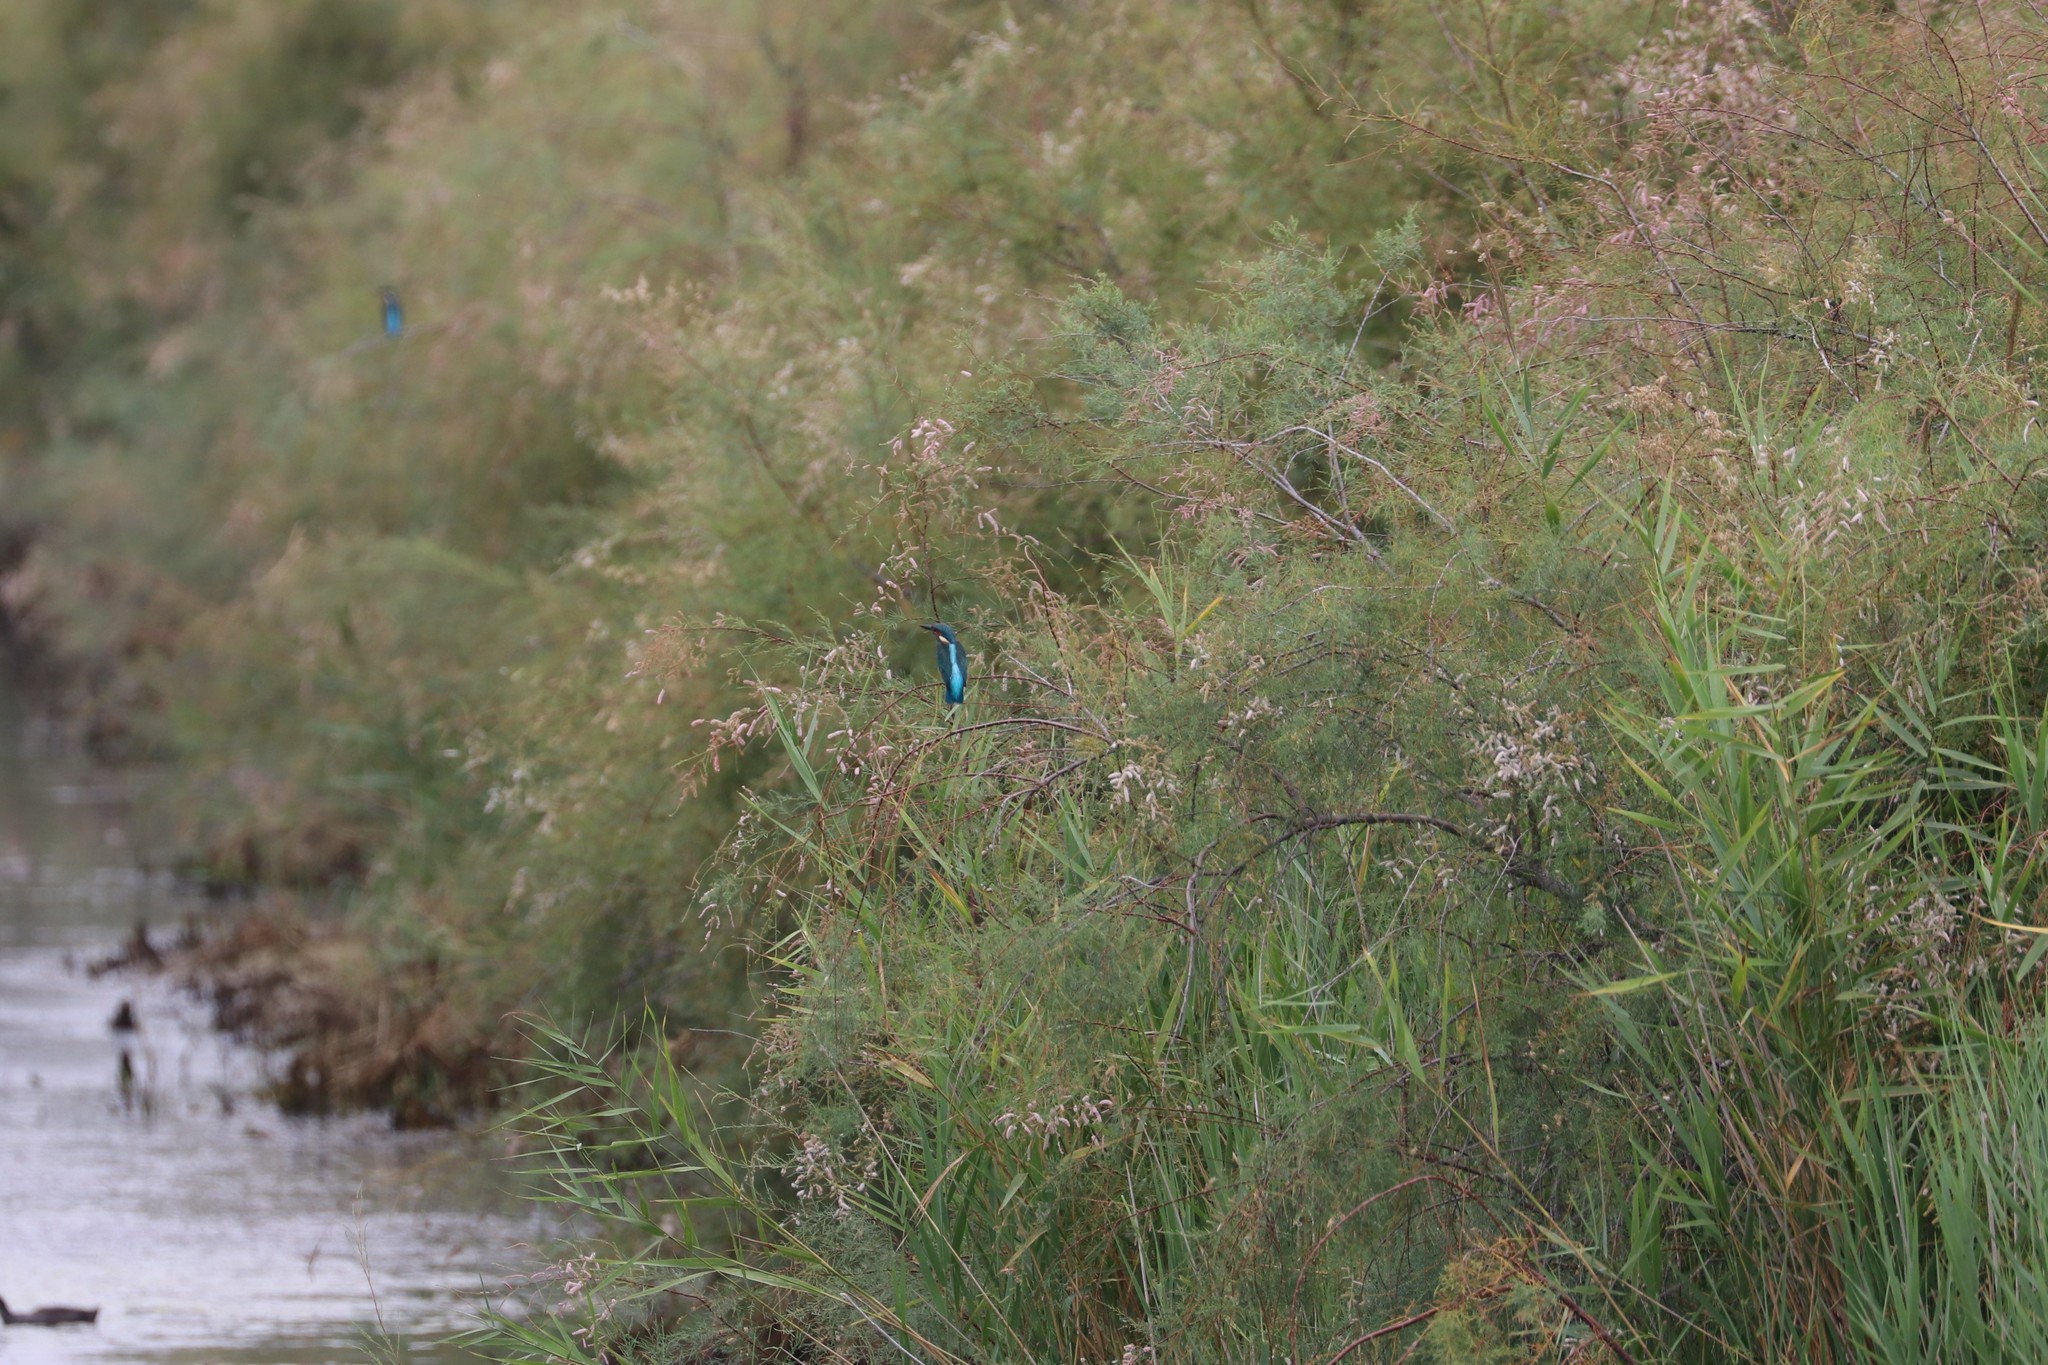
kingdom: Animalia
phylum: Chordata
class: Aves
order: Coraciiformes
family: Alcedinidae
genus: Alcedo
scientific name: Alcedo atthis
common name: Common kingfisher
